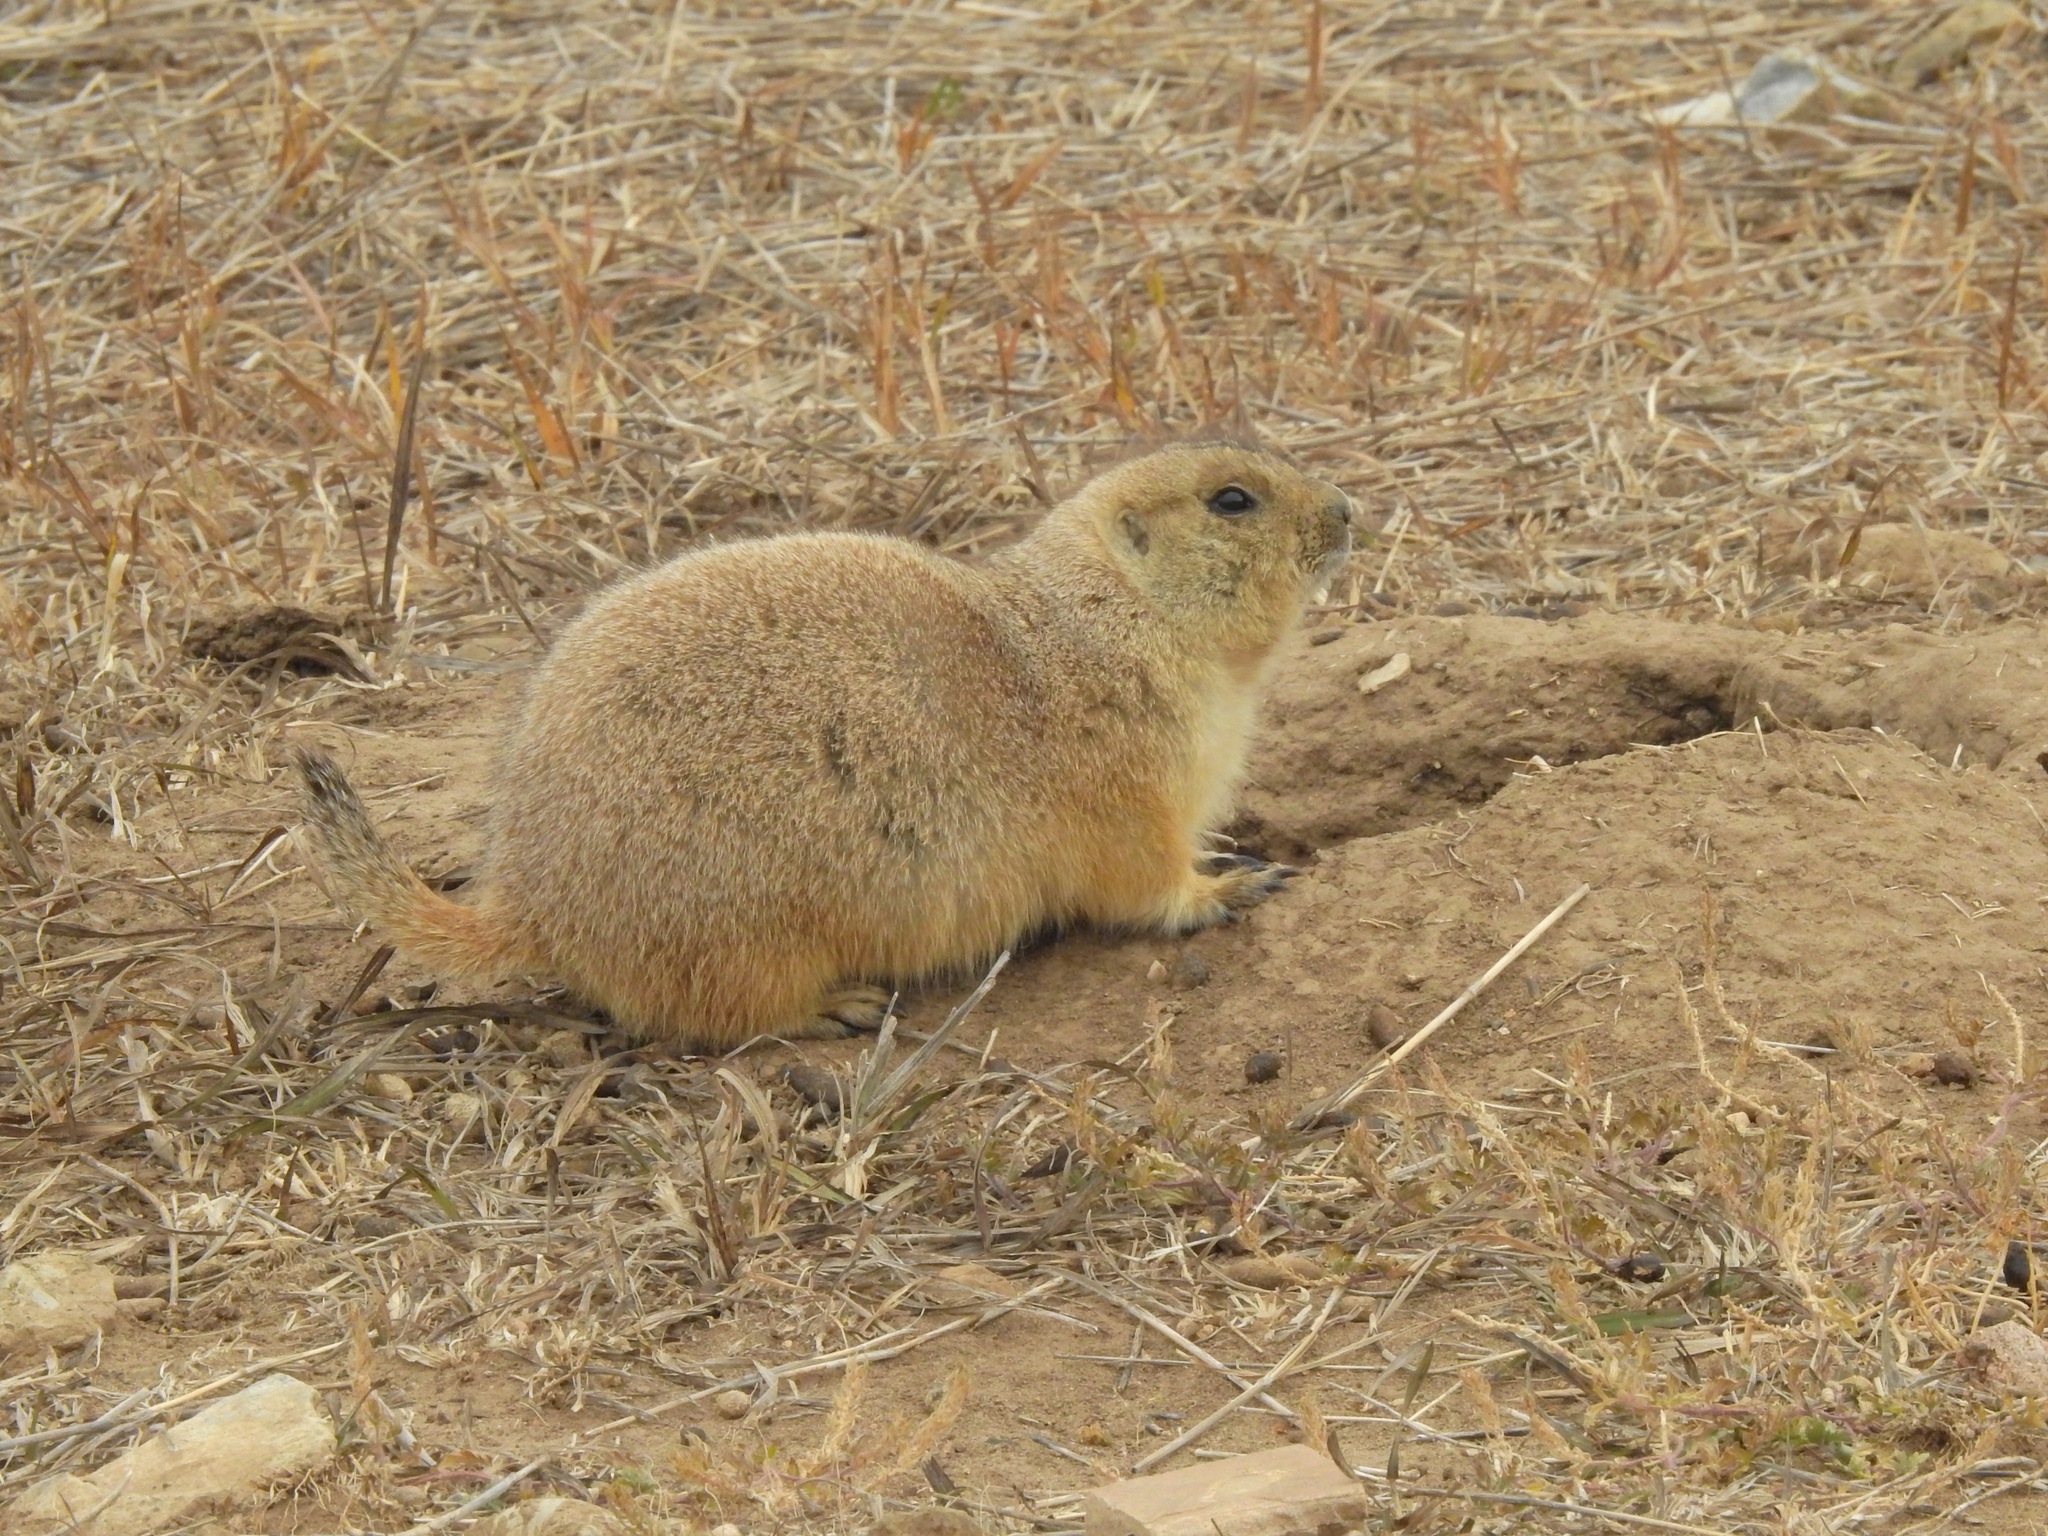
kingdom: Animalia
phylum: Chordata
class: Mammalia
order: Rodentia
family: Sciuridae
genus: Cynomys
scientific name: Cynomys ludovicianus
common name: Black-tailed prairie dog
